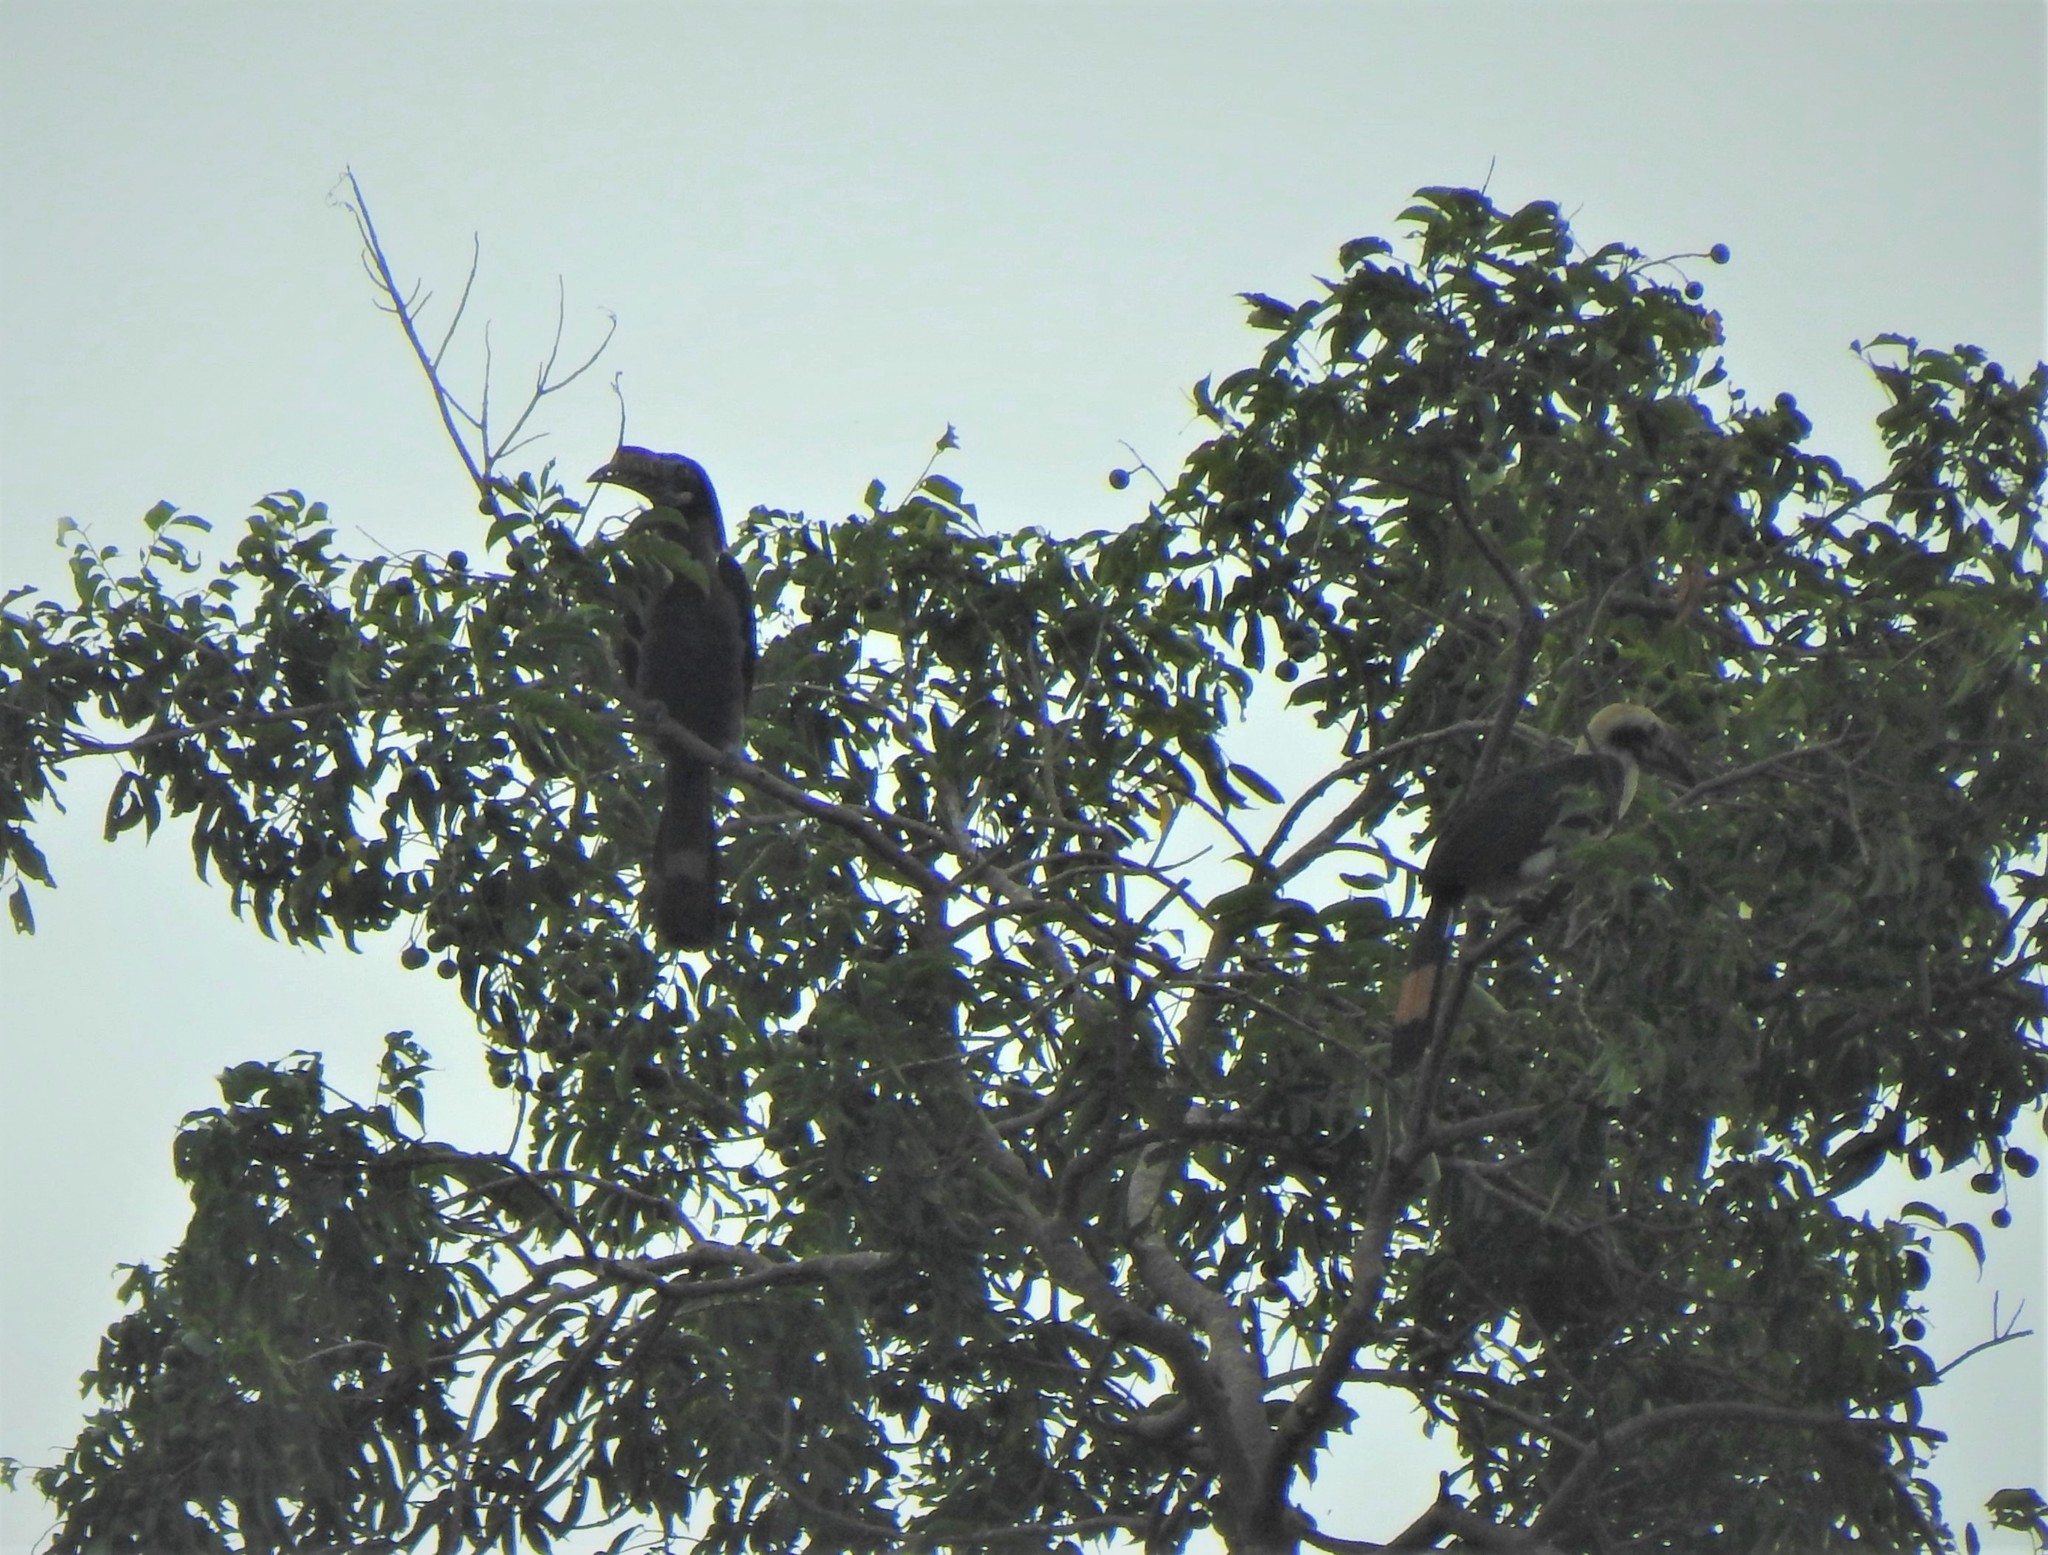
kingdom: Animalia
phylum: Chordata
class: Aves
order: Bucerotiformes
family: Bucerotidae
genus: Penelopides
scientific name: Penelopides manillae
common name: Luzon hornbill
